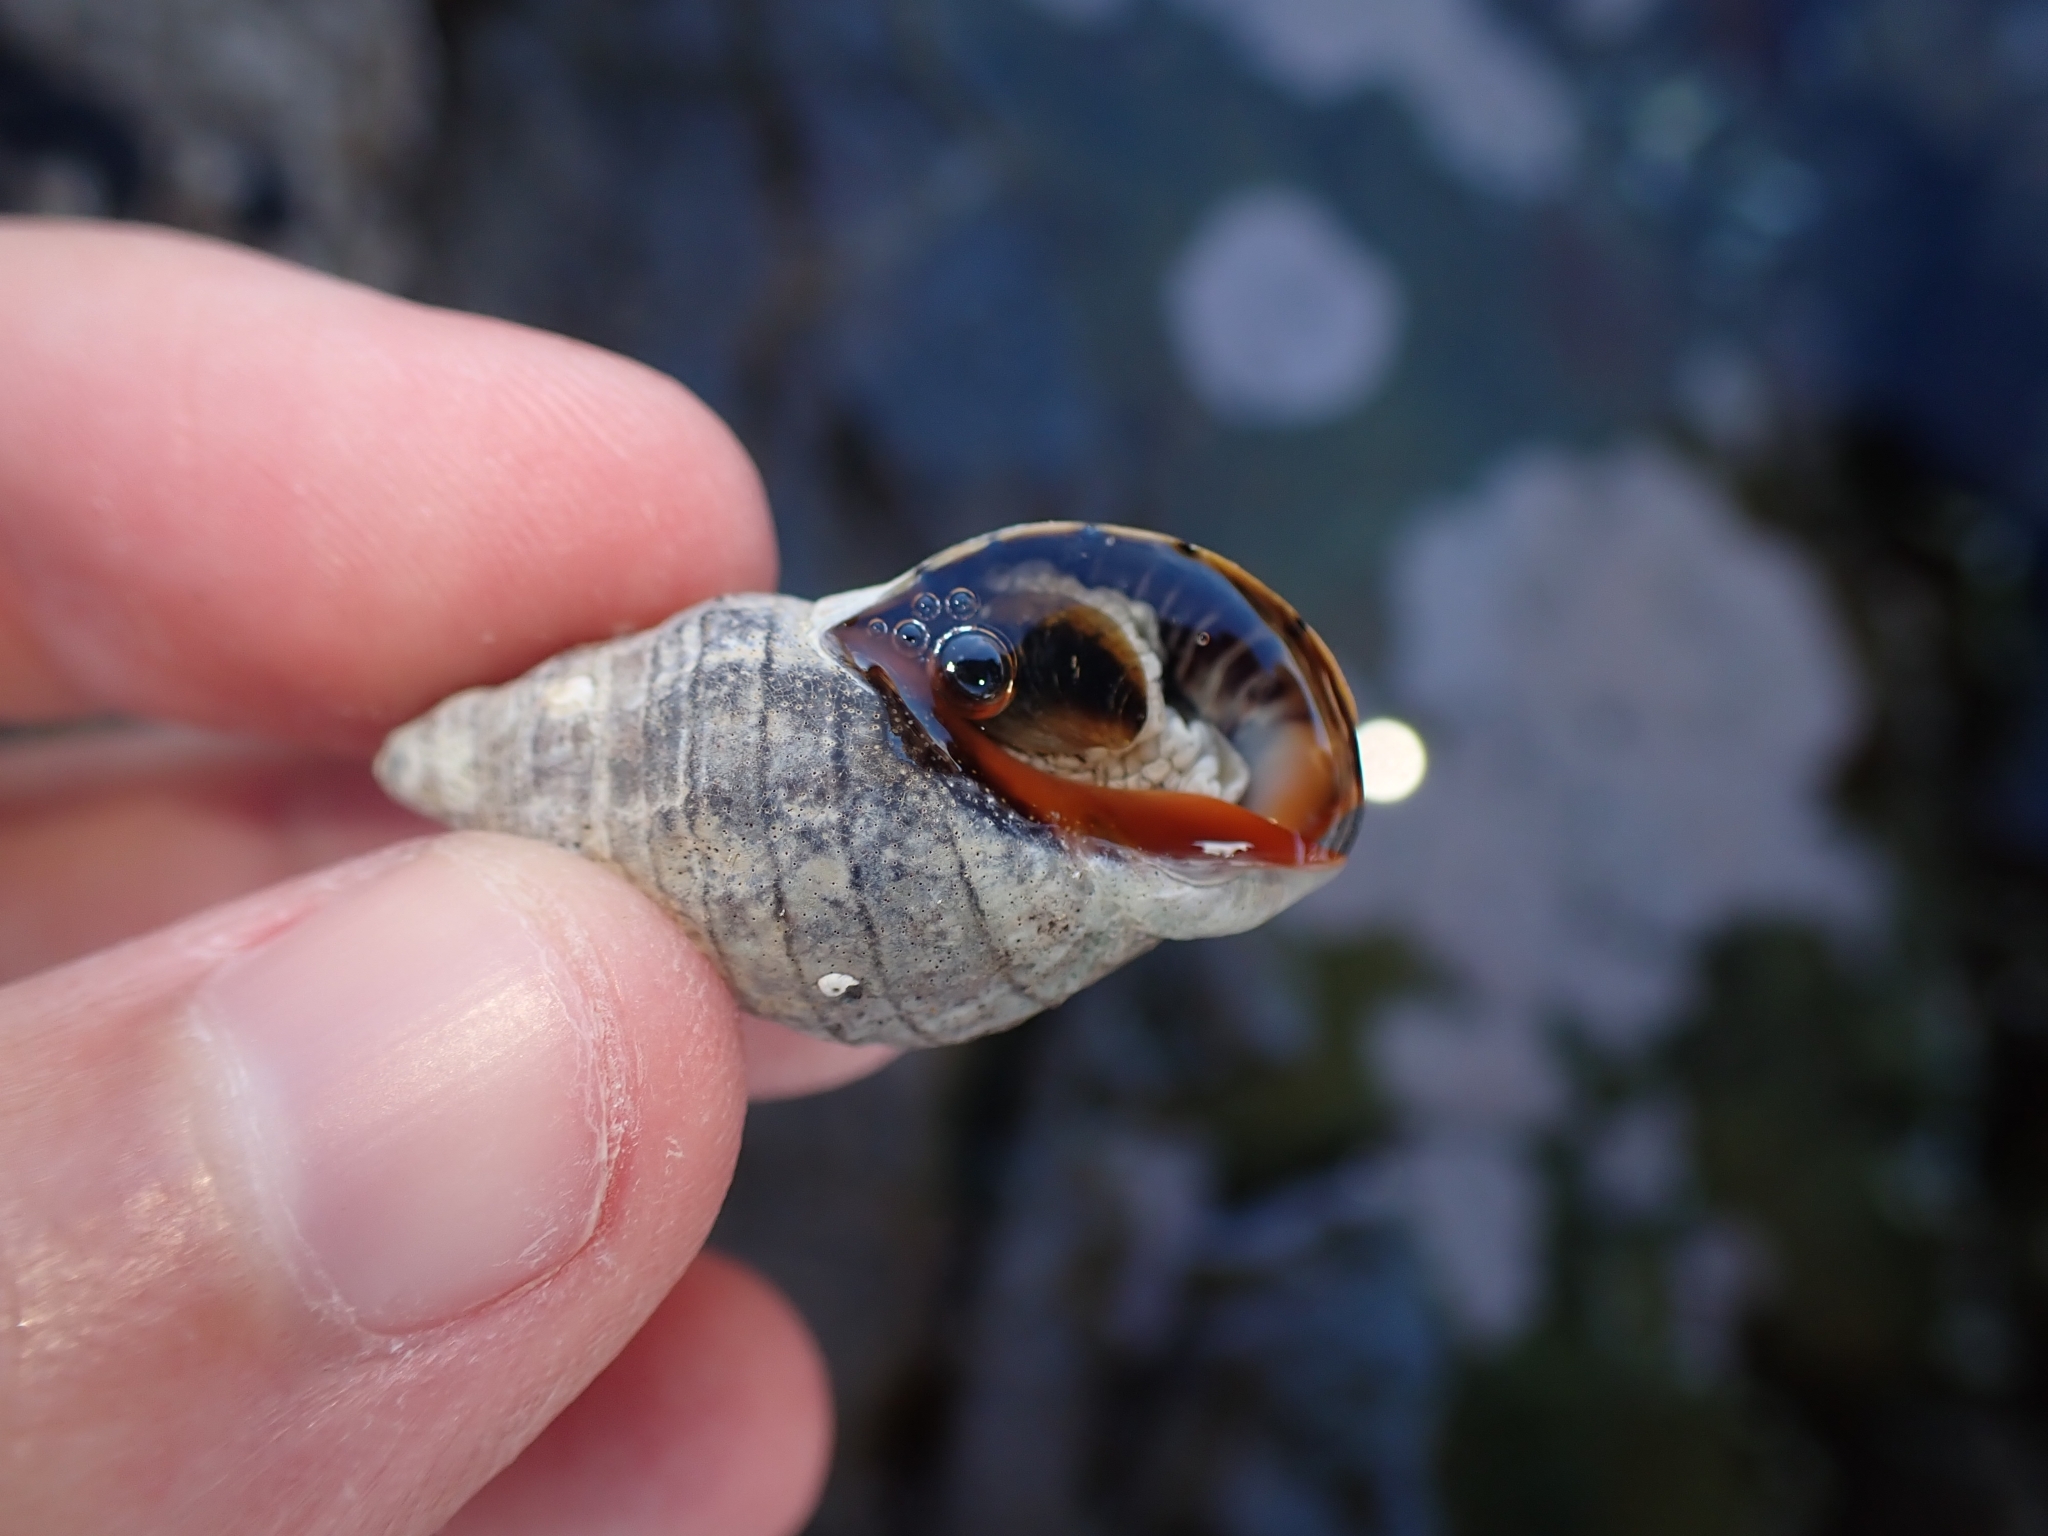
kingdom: Animalia
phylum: Mollusca
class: Gastropoda
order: Neogastropoda
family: Cominellidae
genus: Cominella
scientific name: Cominella virgata
